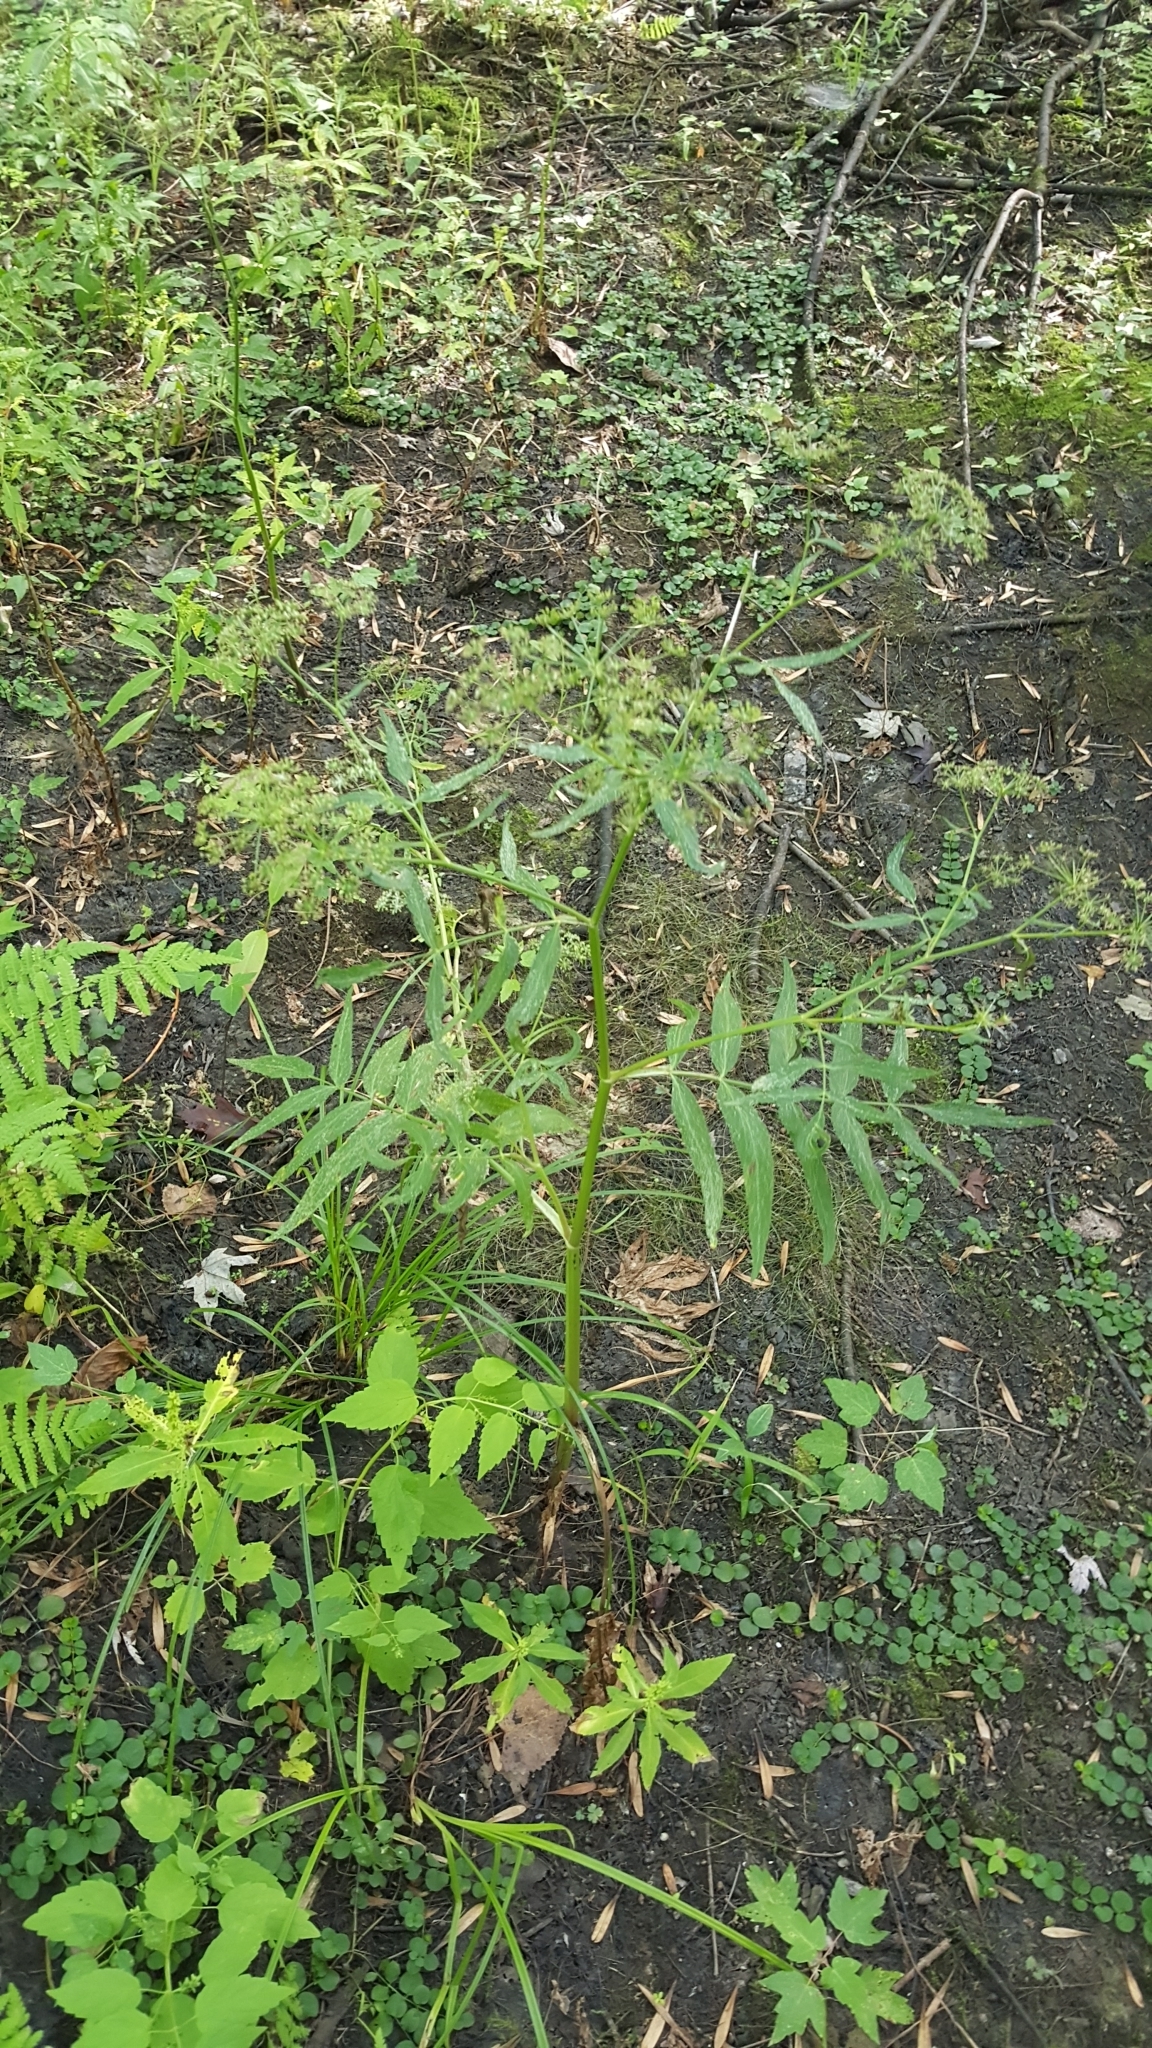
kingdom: Plantae
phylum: Tracheophyta
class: Magnoliopsida
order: Apiales
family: Apiaceae
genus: Sium
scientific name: Sium suave
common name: Hemlock water-parsnip
